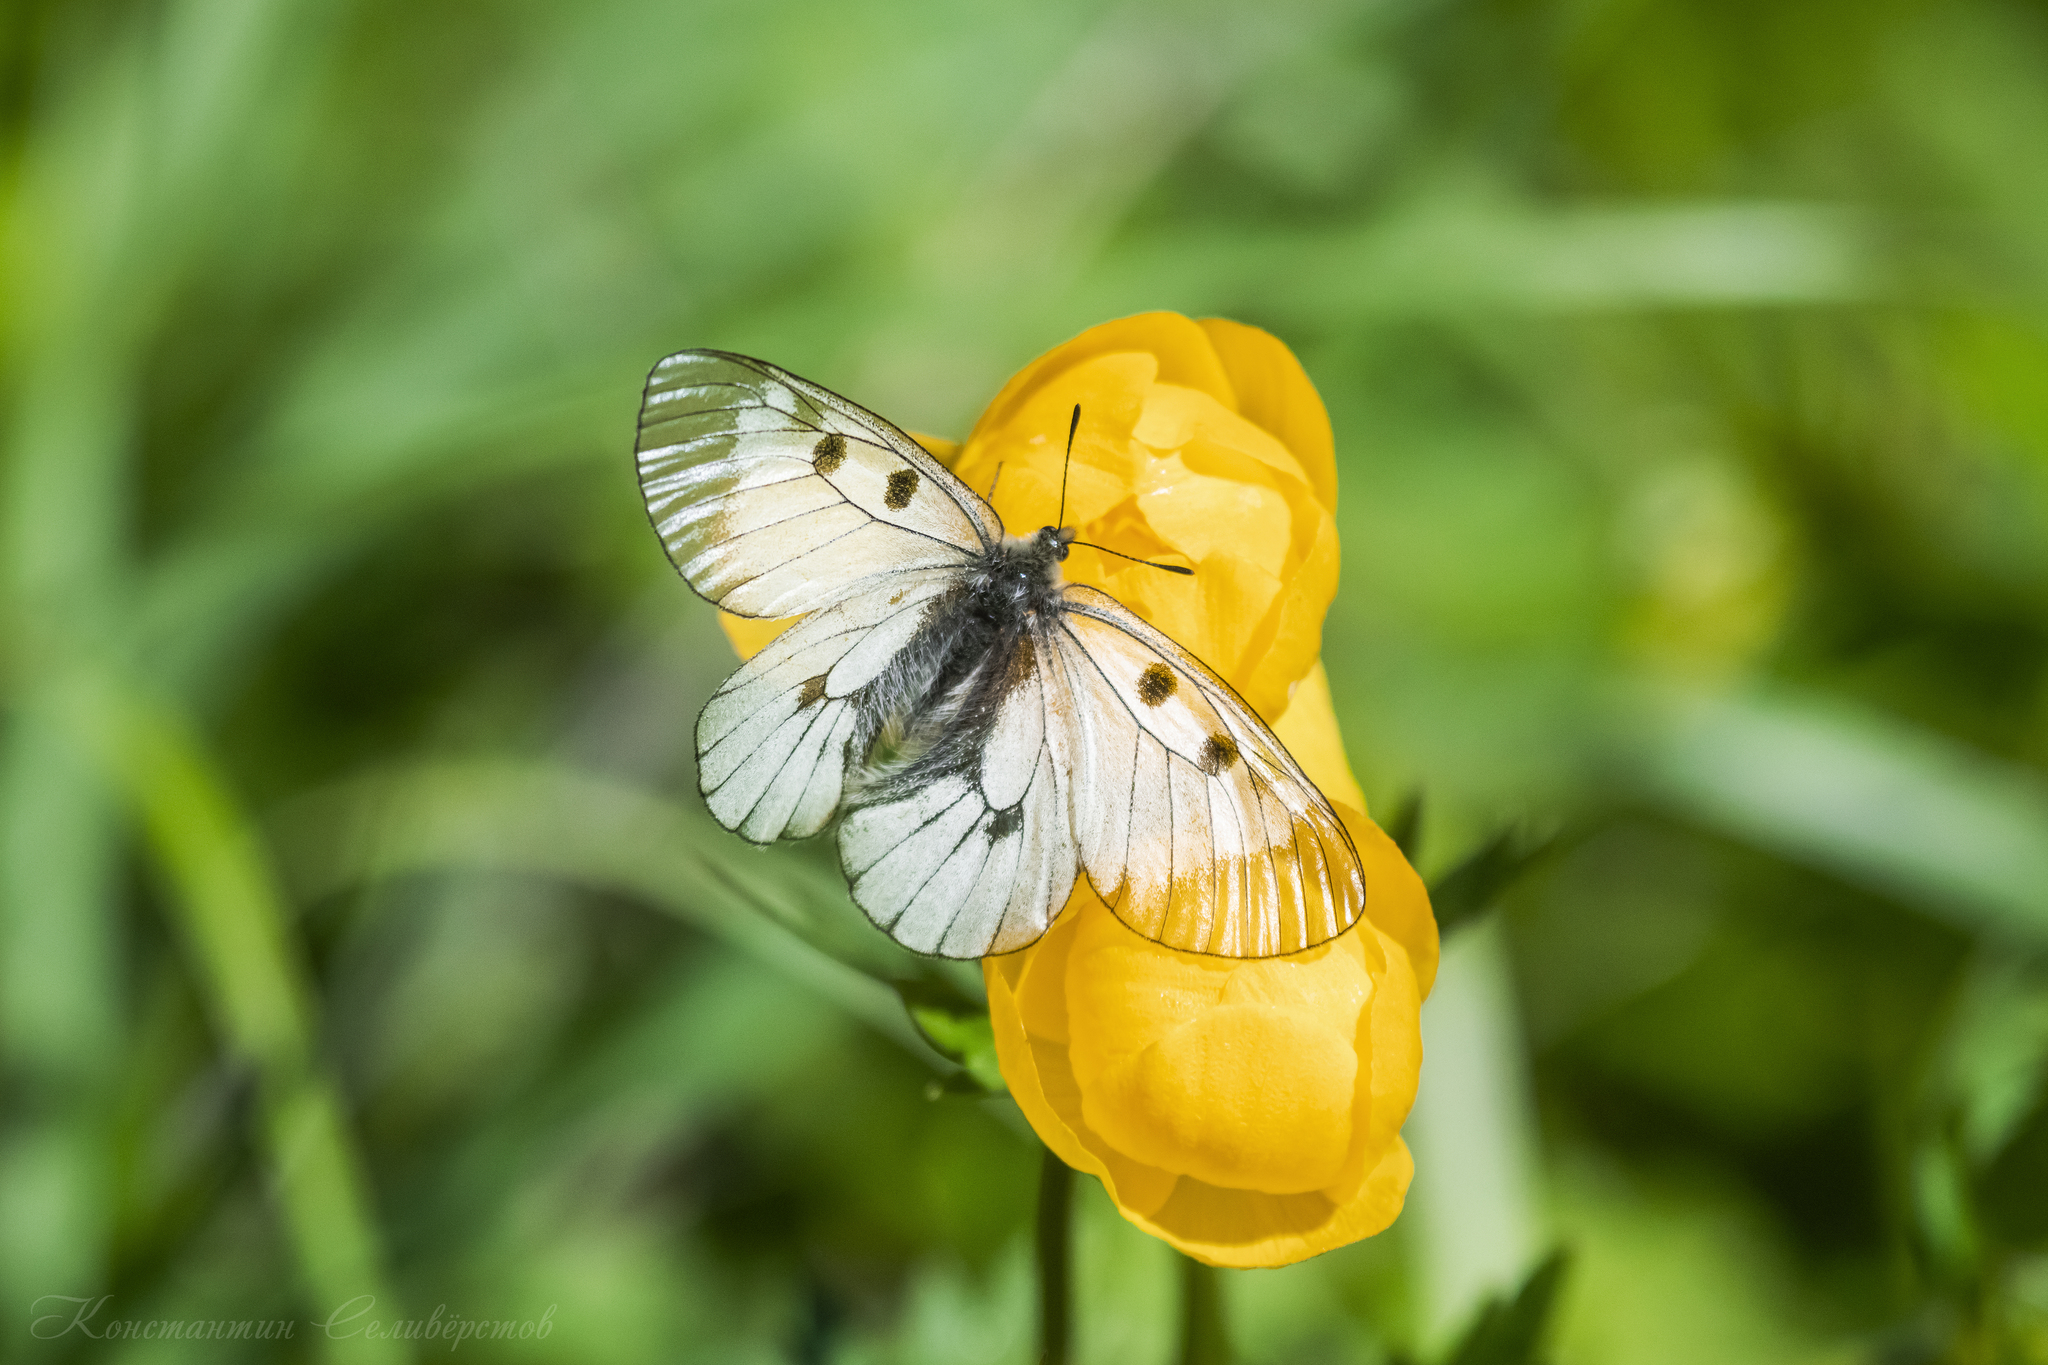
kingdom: Animalia
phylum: Arthropoda
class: Insecta
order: Lepidoptera
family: Papilionidae
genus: Parnassius
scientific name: Parnassius mnemosyne
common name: Clouded apollo
